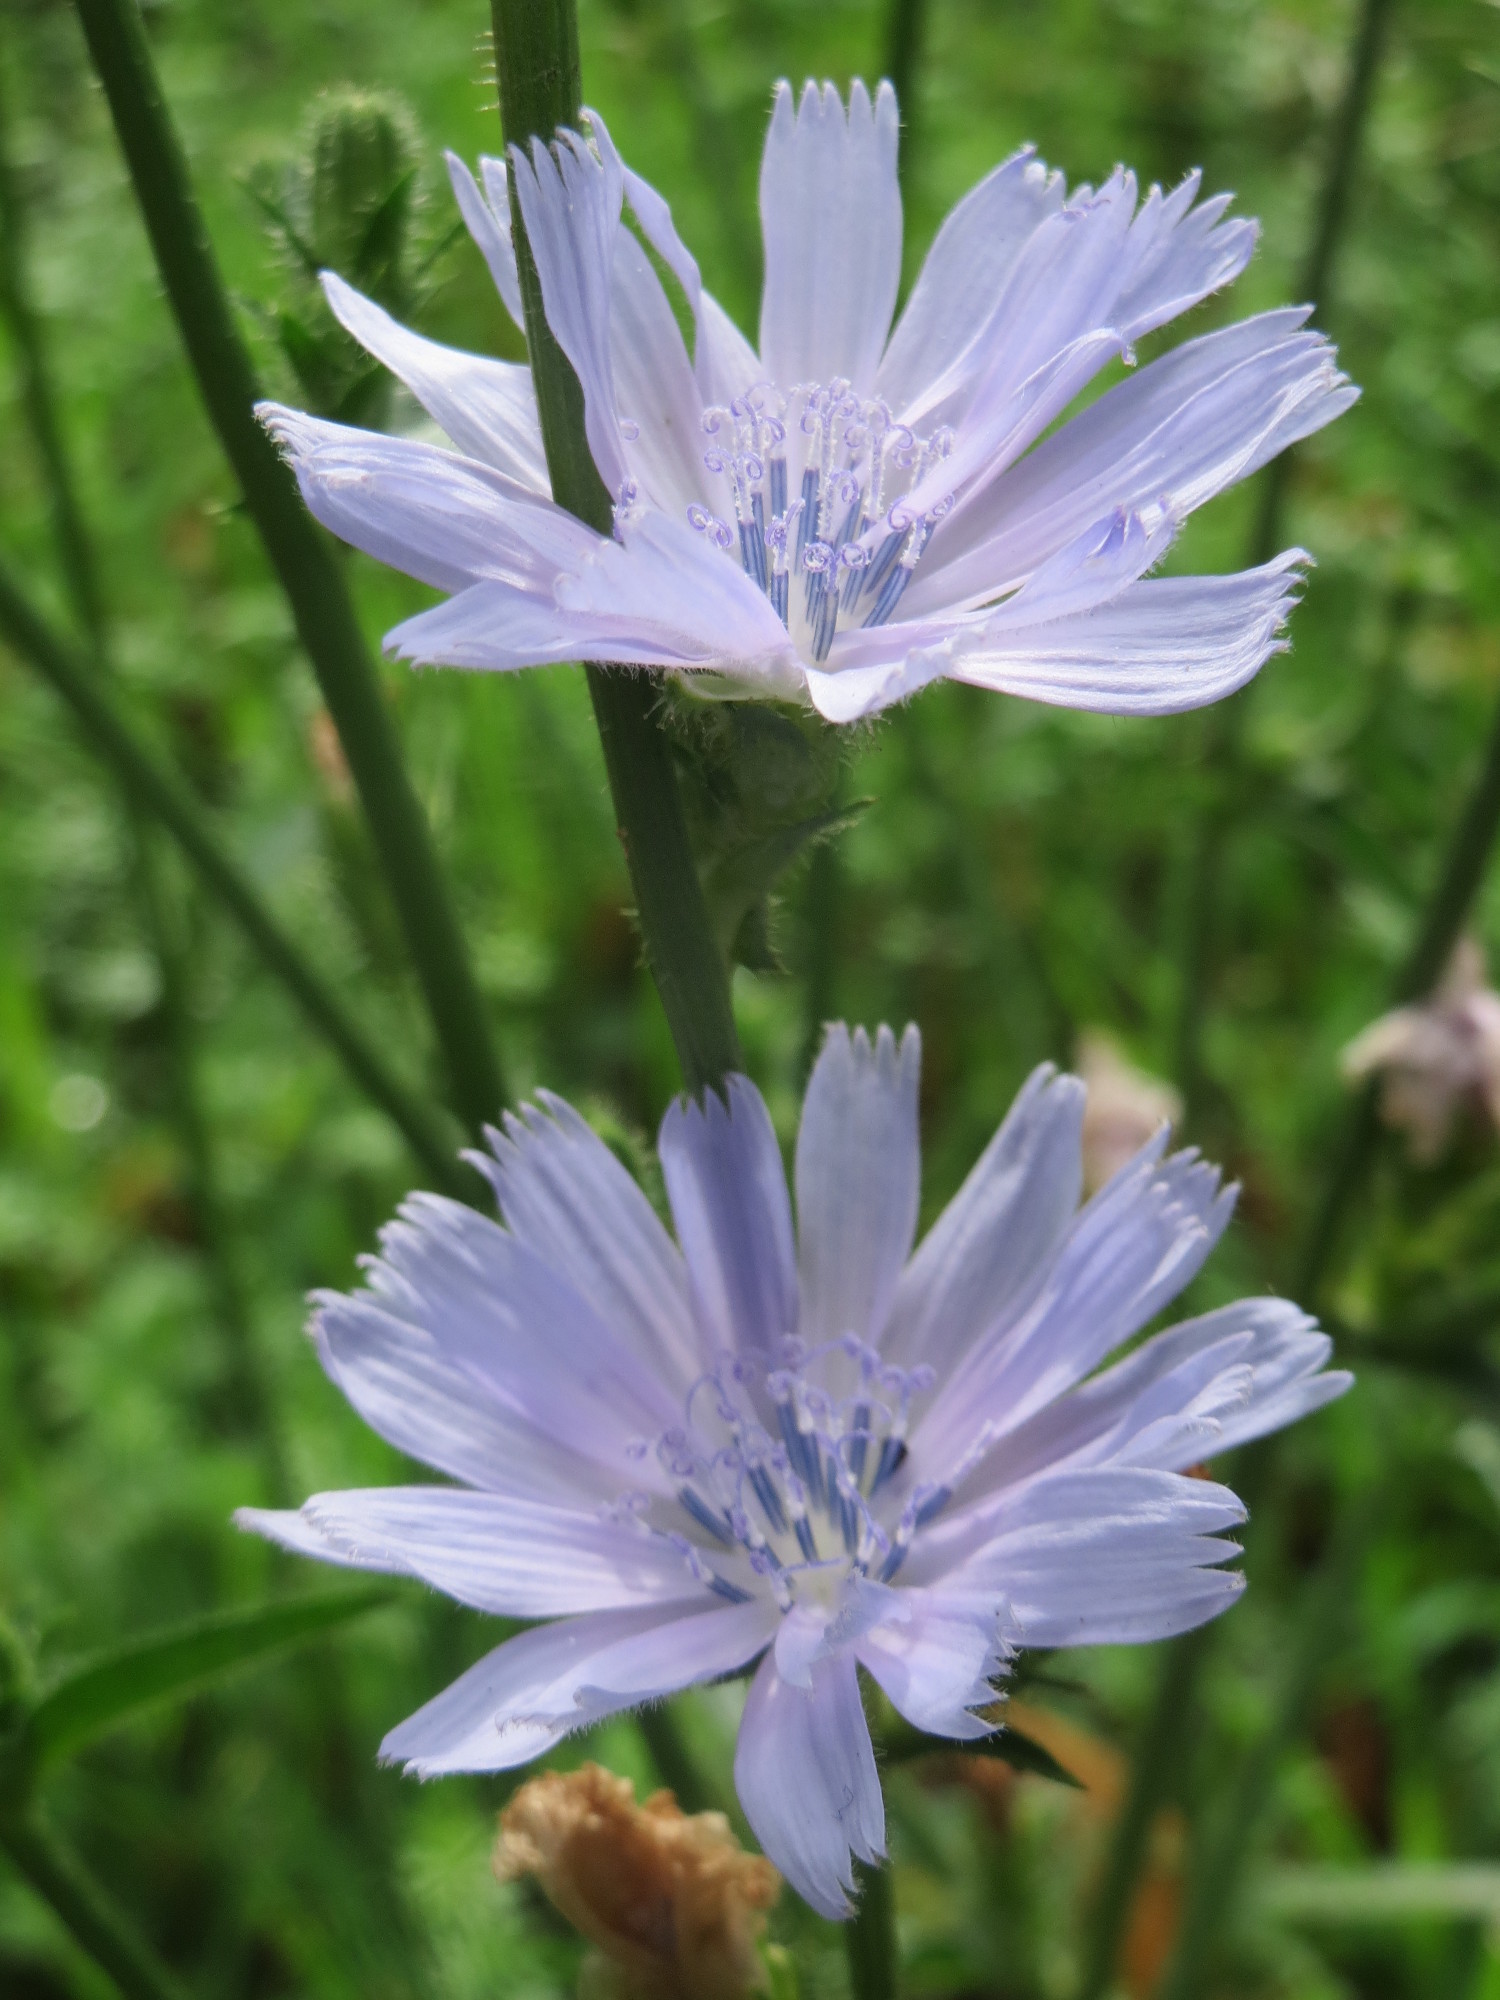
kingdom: Plantae
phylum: Tracheophyta
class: Magnoliopsida
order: Asterales
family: Asteraceae
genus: Cichorium
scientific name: Cichorium intybus
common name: Chicory
